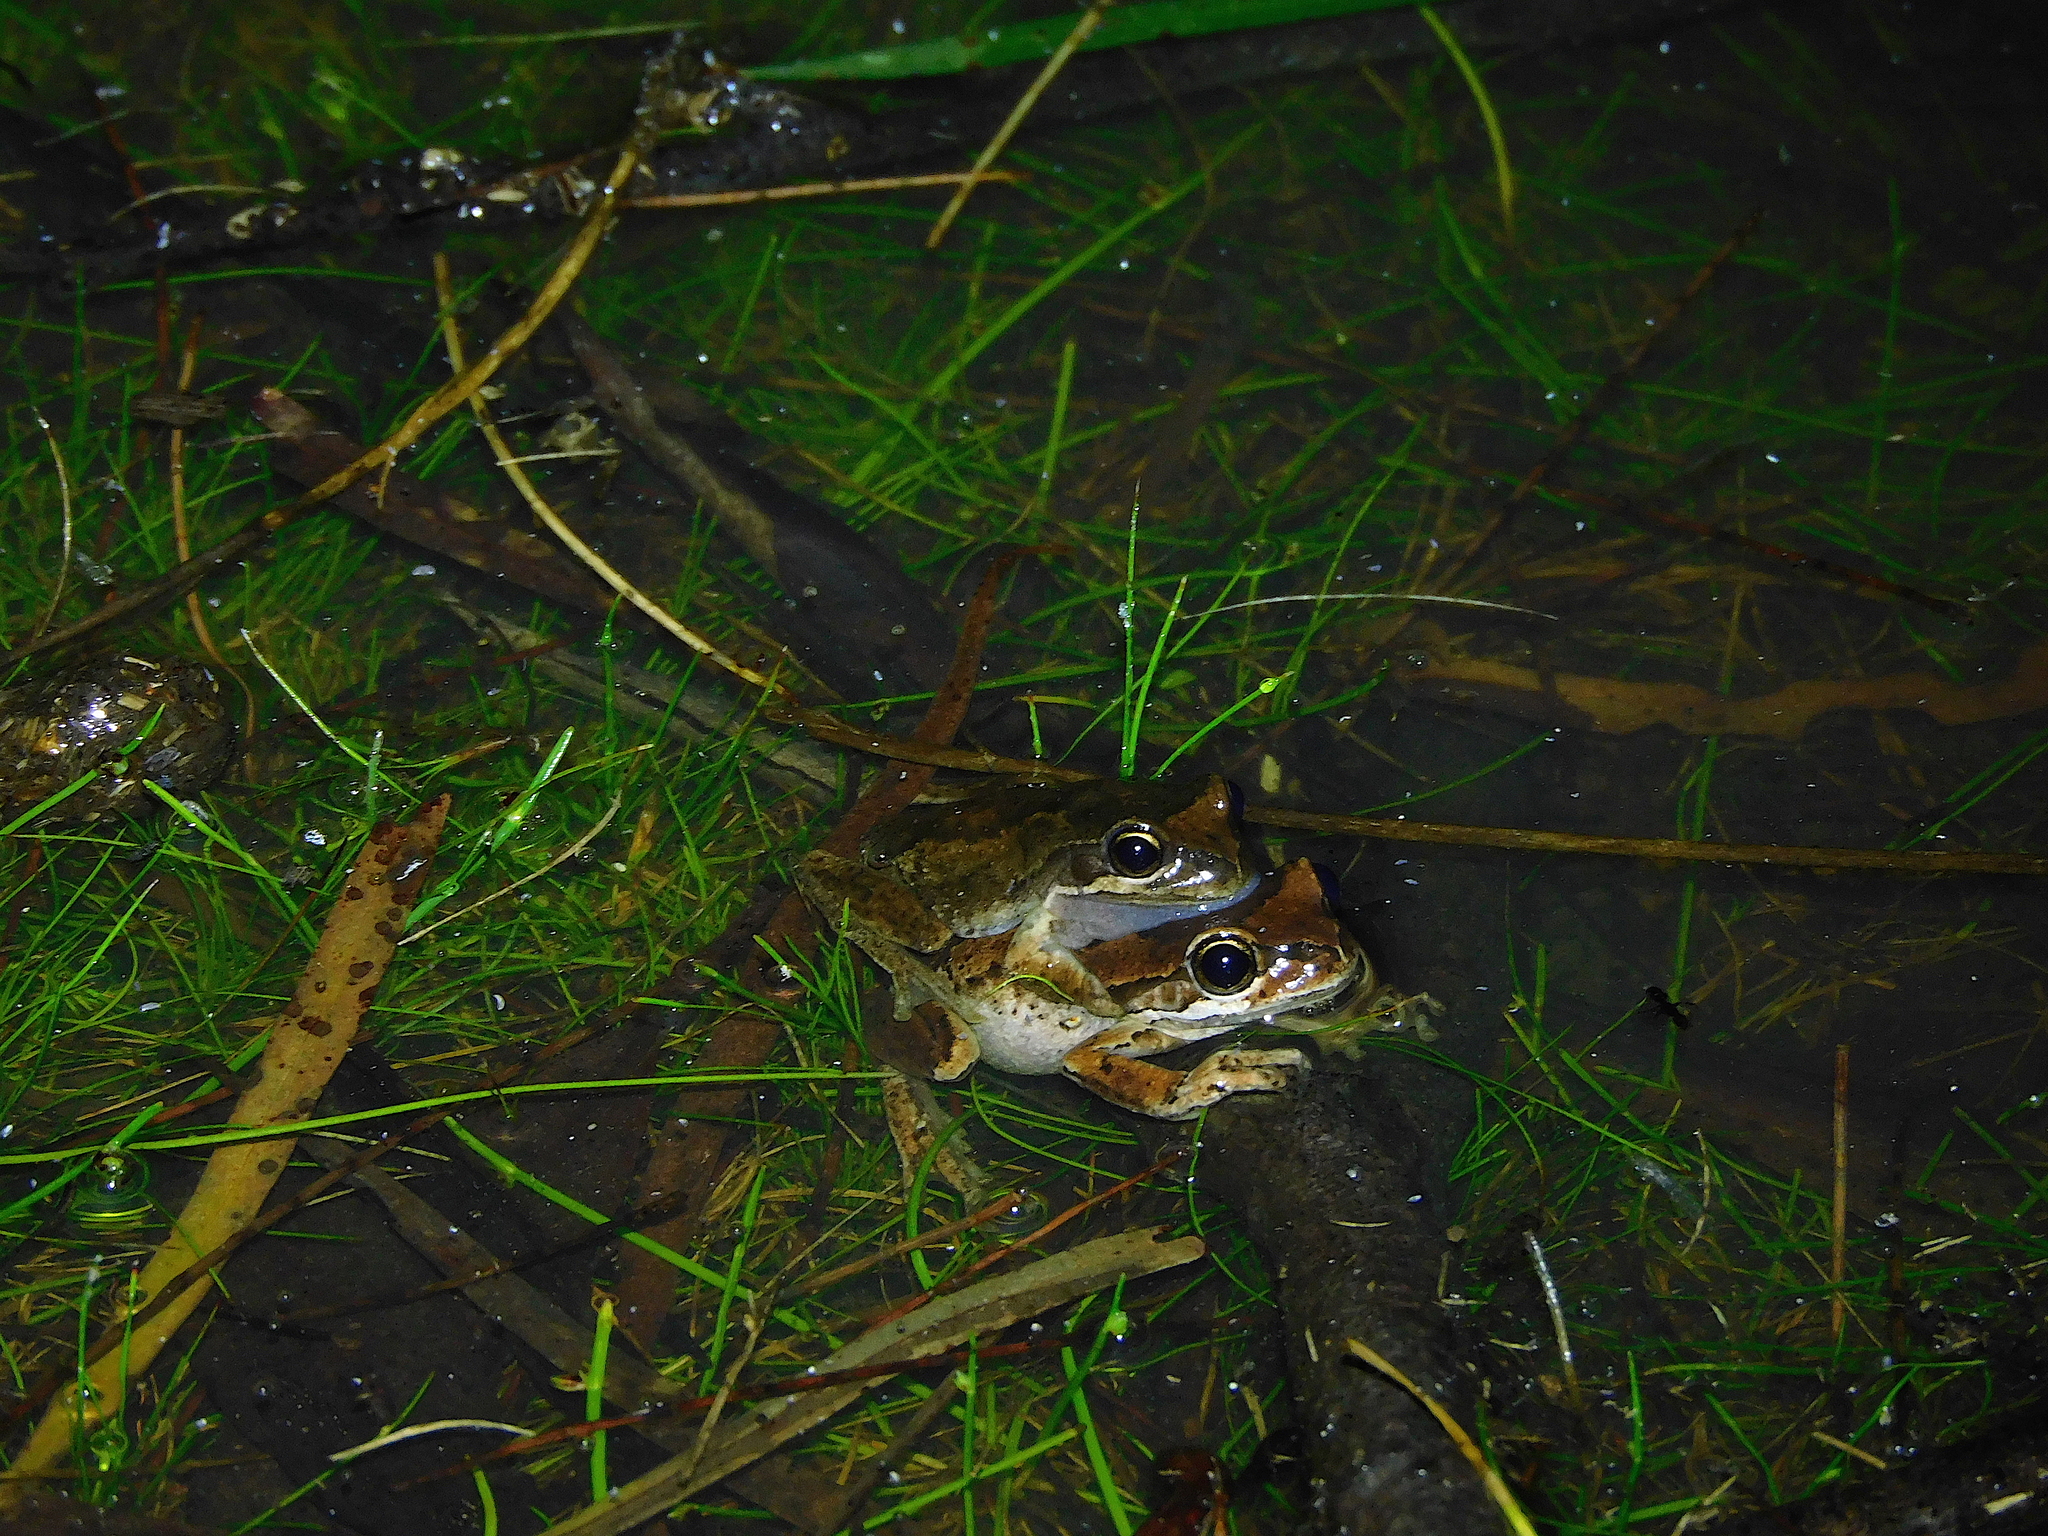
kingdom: Animalia
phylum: Chordata
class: Amphibia
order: Anura
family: Pelodryadidae
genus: Litoria
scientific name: Litoria ewingii
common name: Southern brown tree frog
